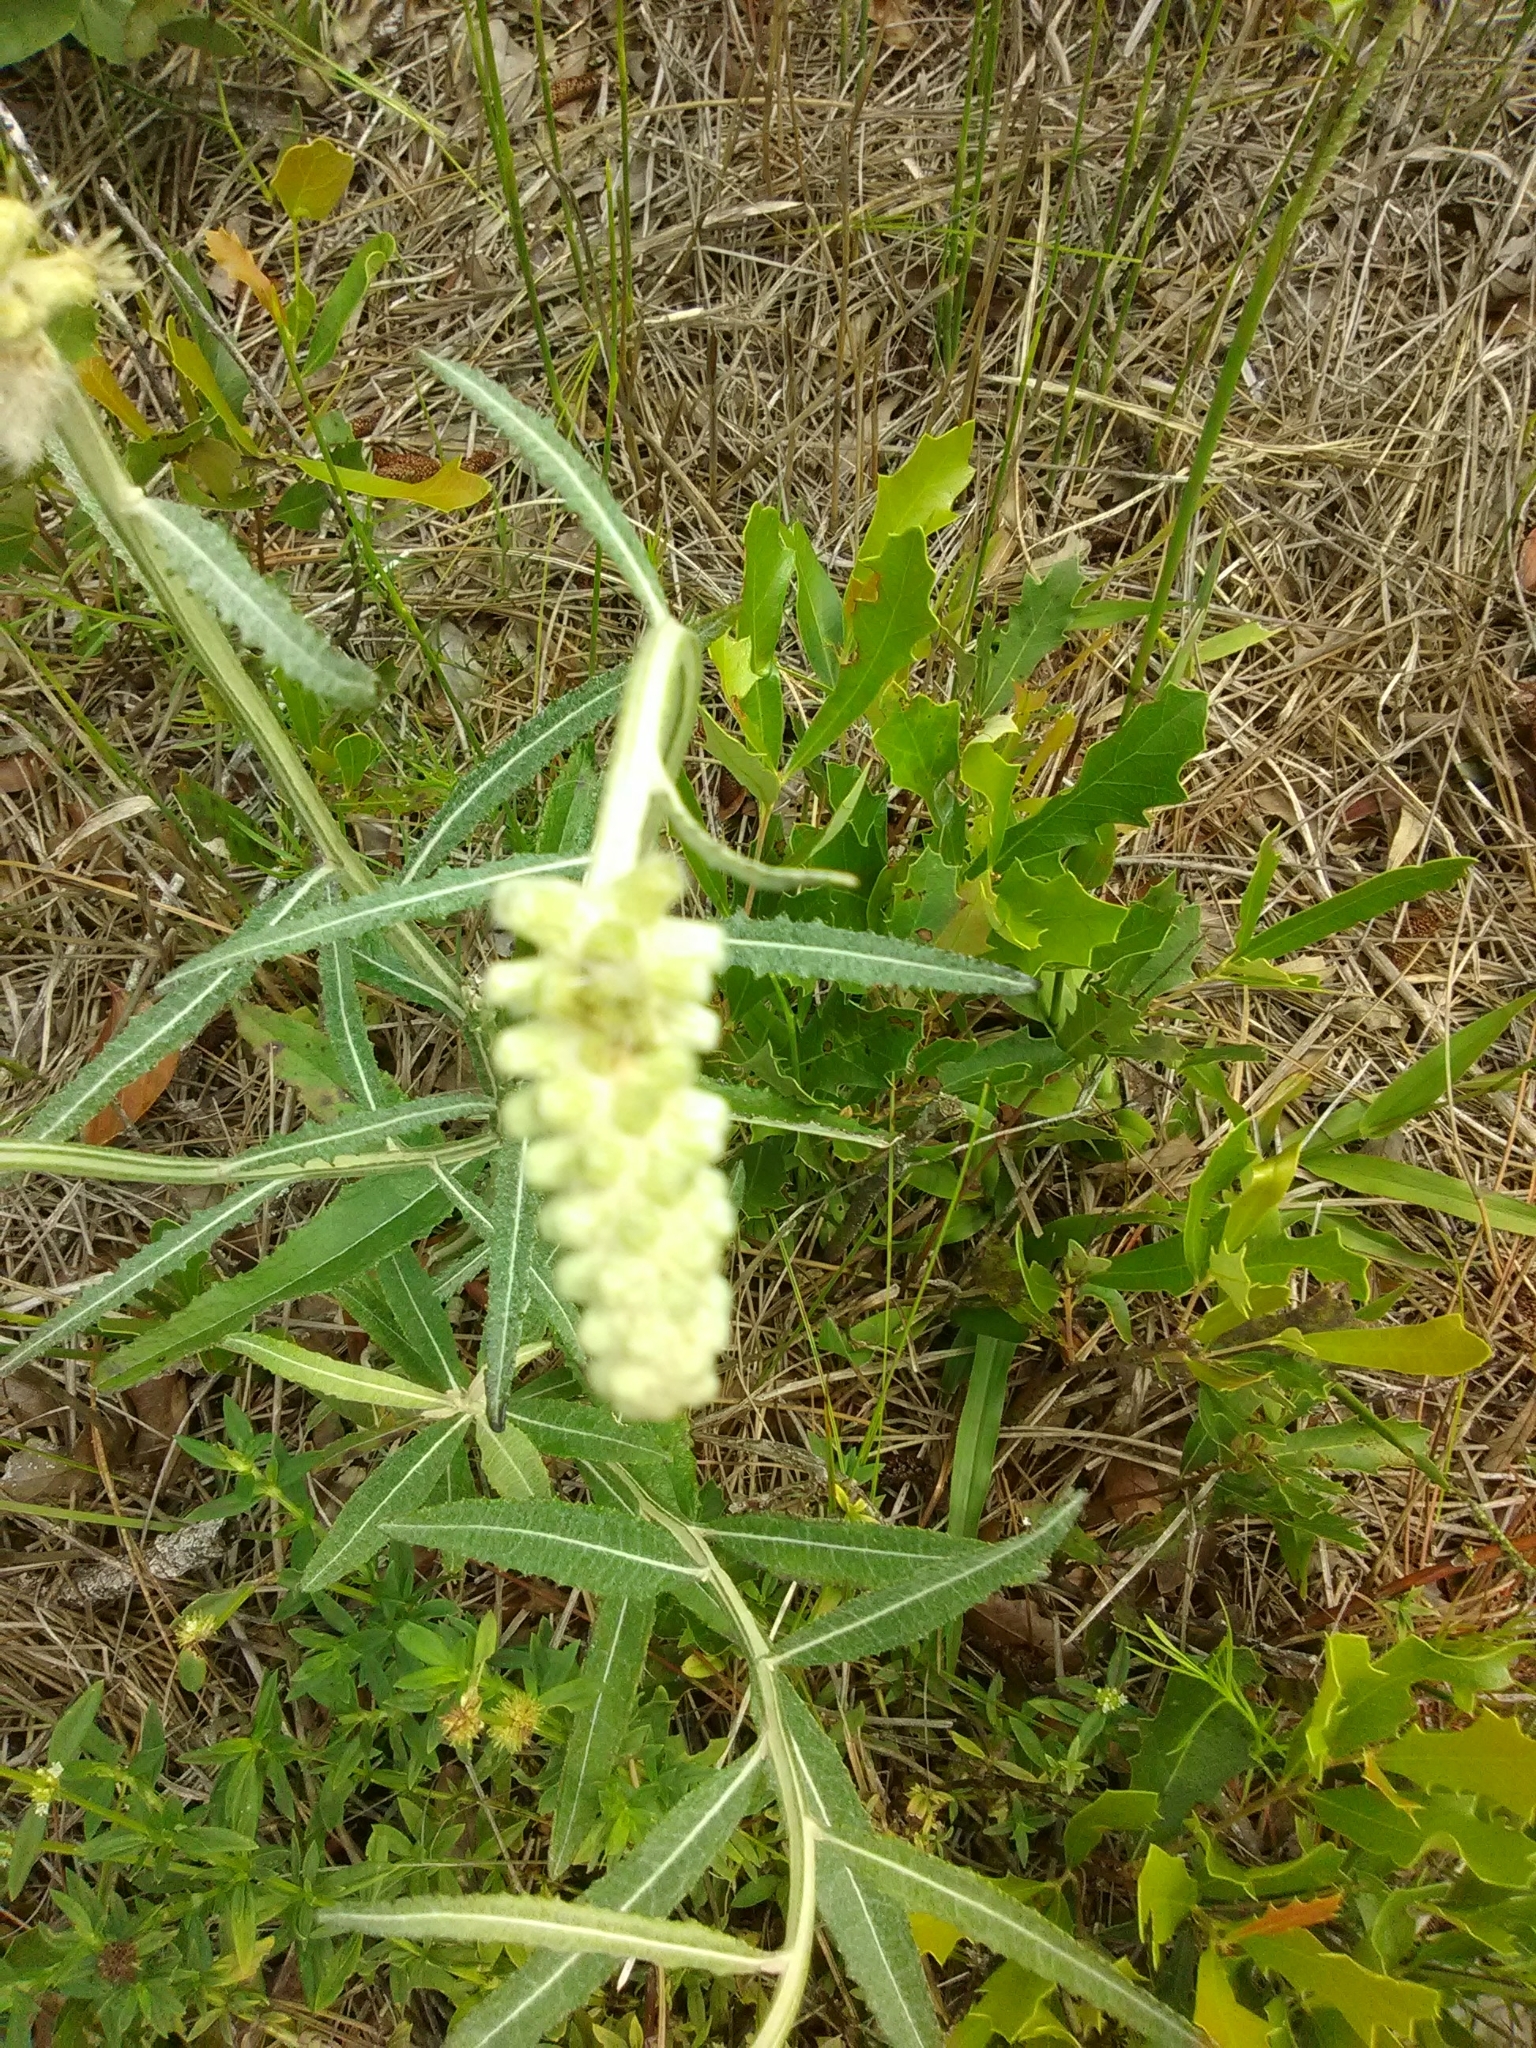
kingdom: Plantae
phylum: Tracheophyta
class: Magnoliopsida
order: Asterales
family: Asteraceae
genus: Pterocaulon
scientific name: Pterocaulon pycnostachyum
